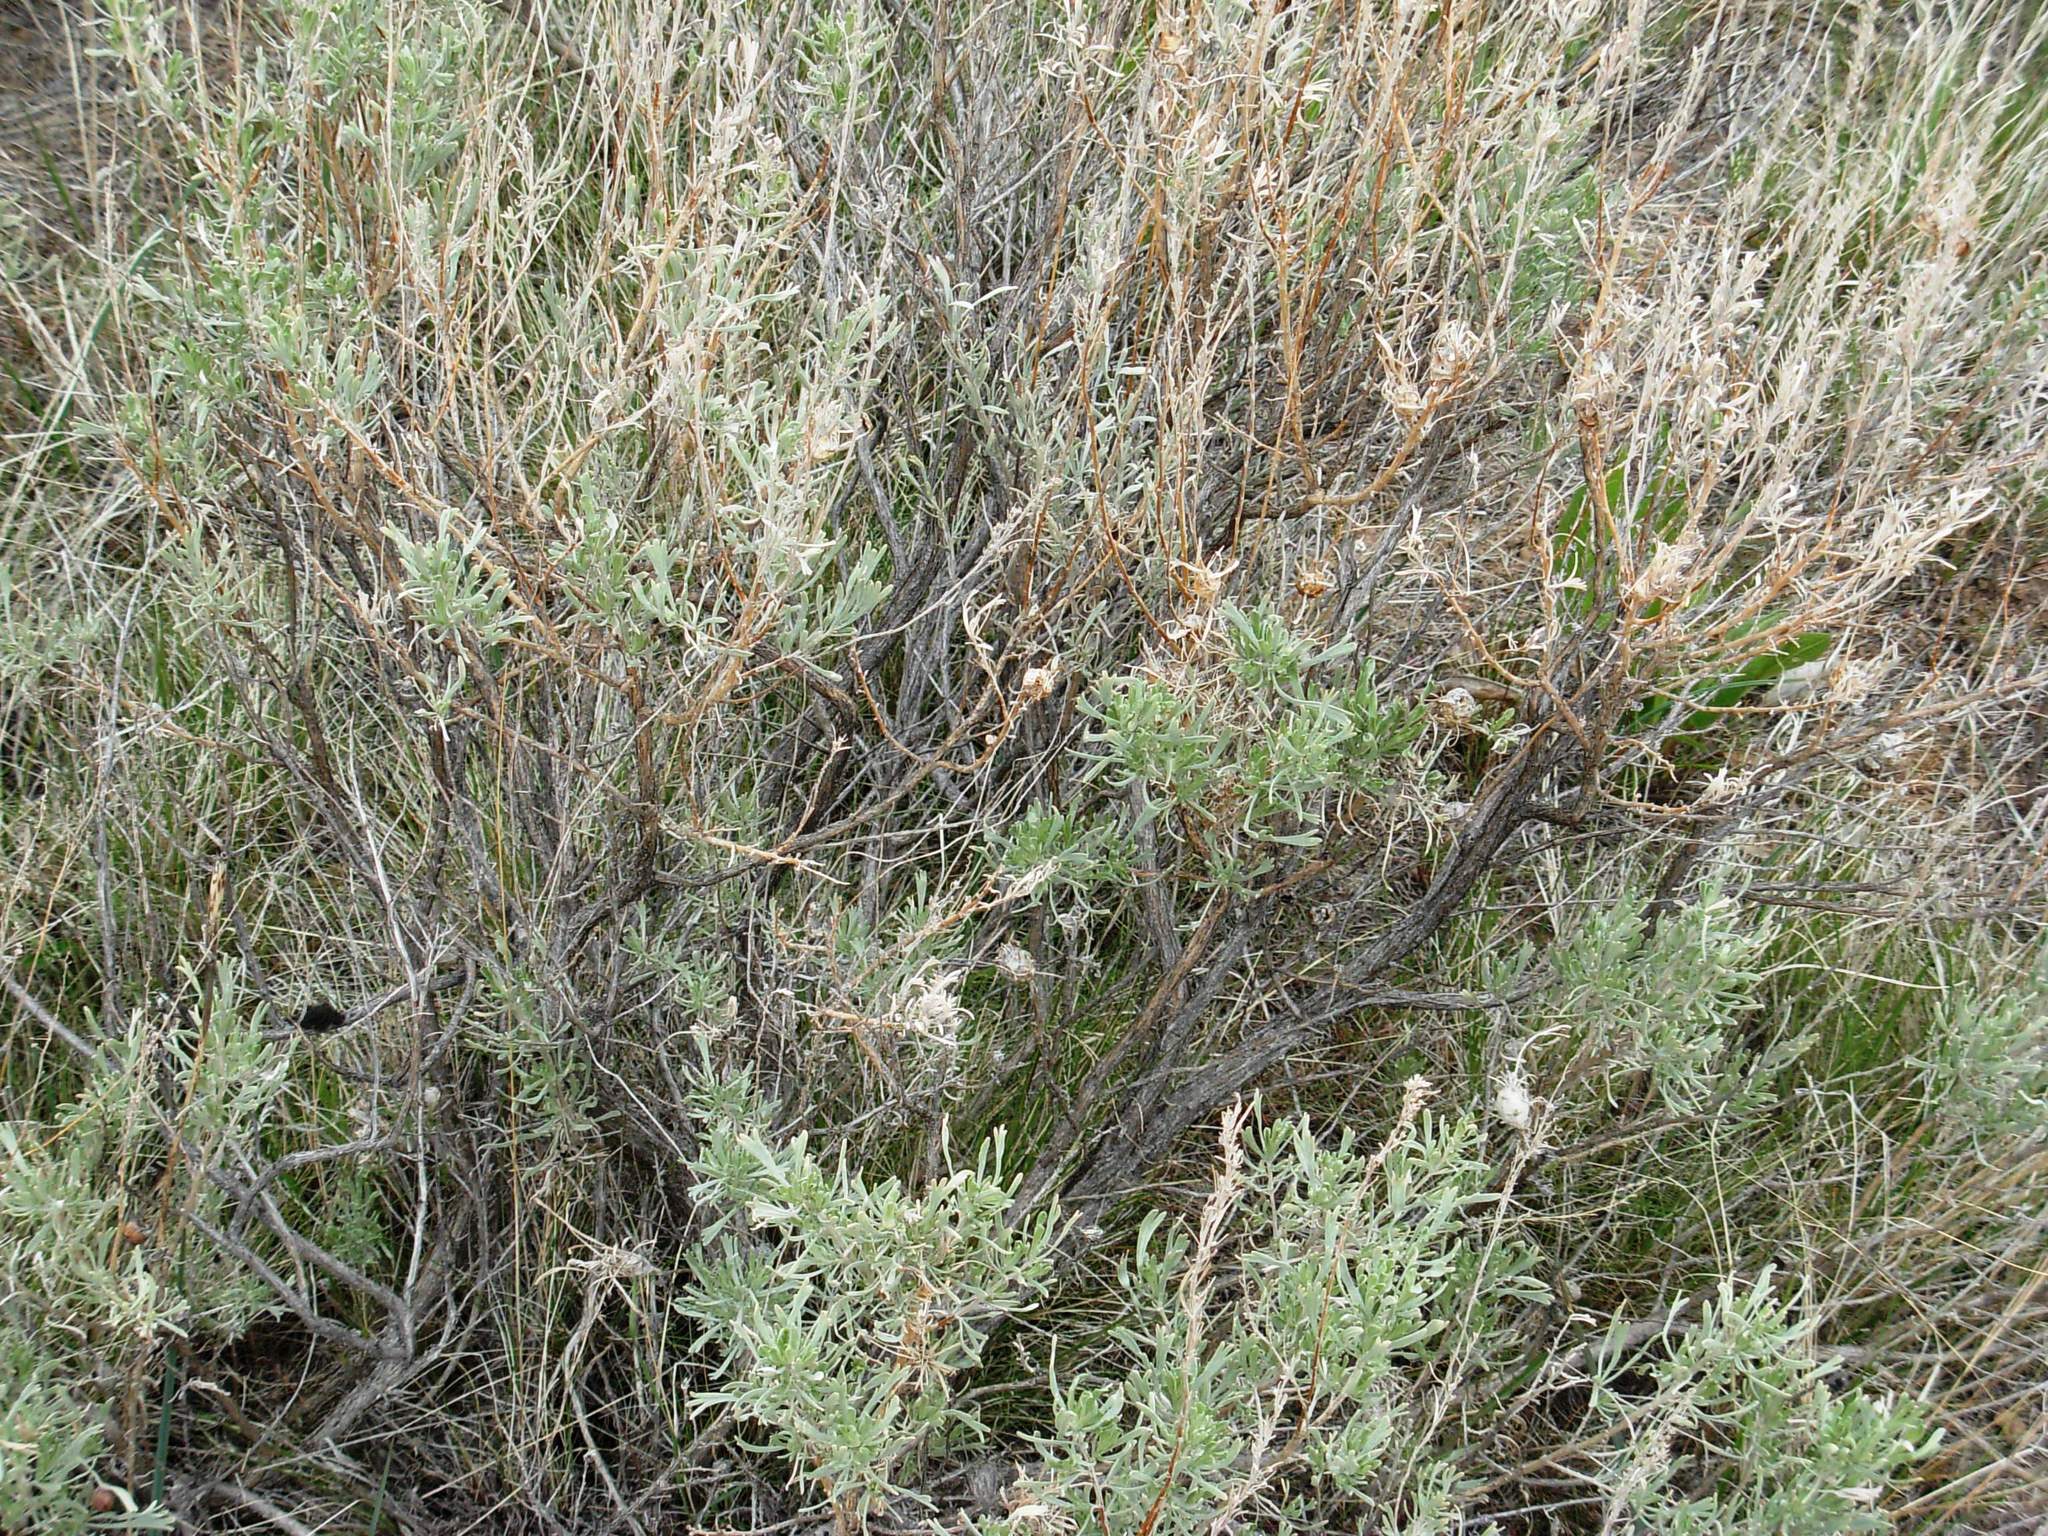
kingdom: Animalia
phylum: Arthropoda
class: Insecta
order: Lepidoptera
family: Saturniidae
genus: Hemileuca
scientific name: Hemileuca hera
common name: Hera sheepmoth
